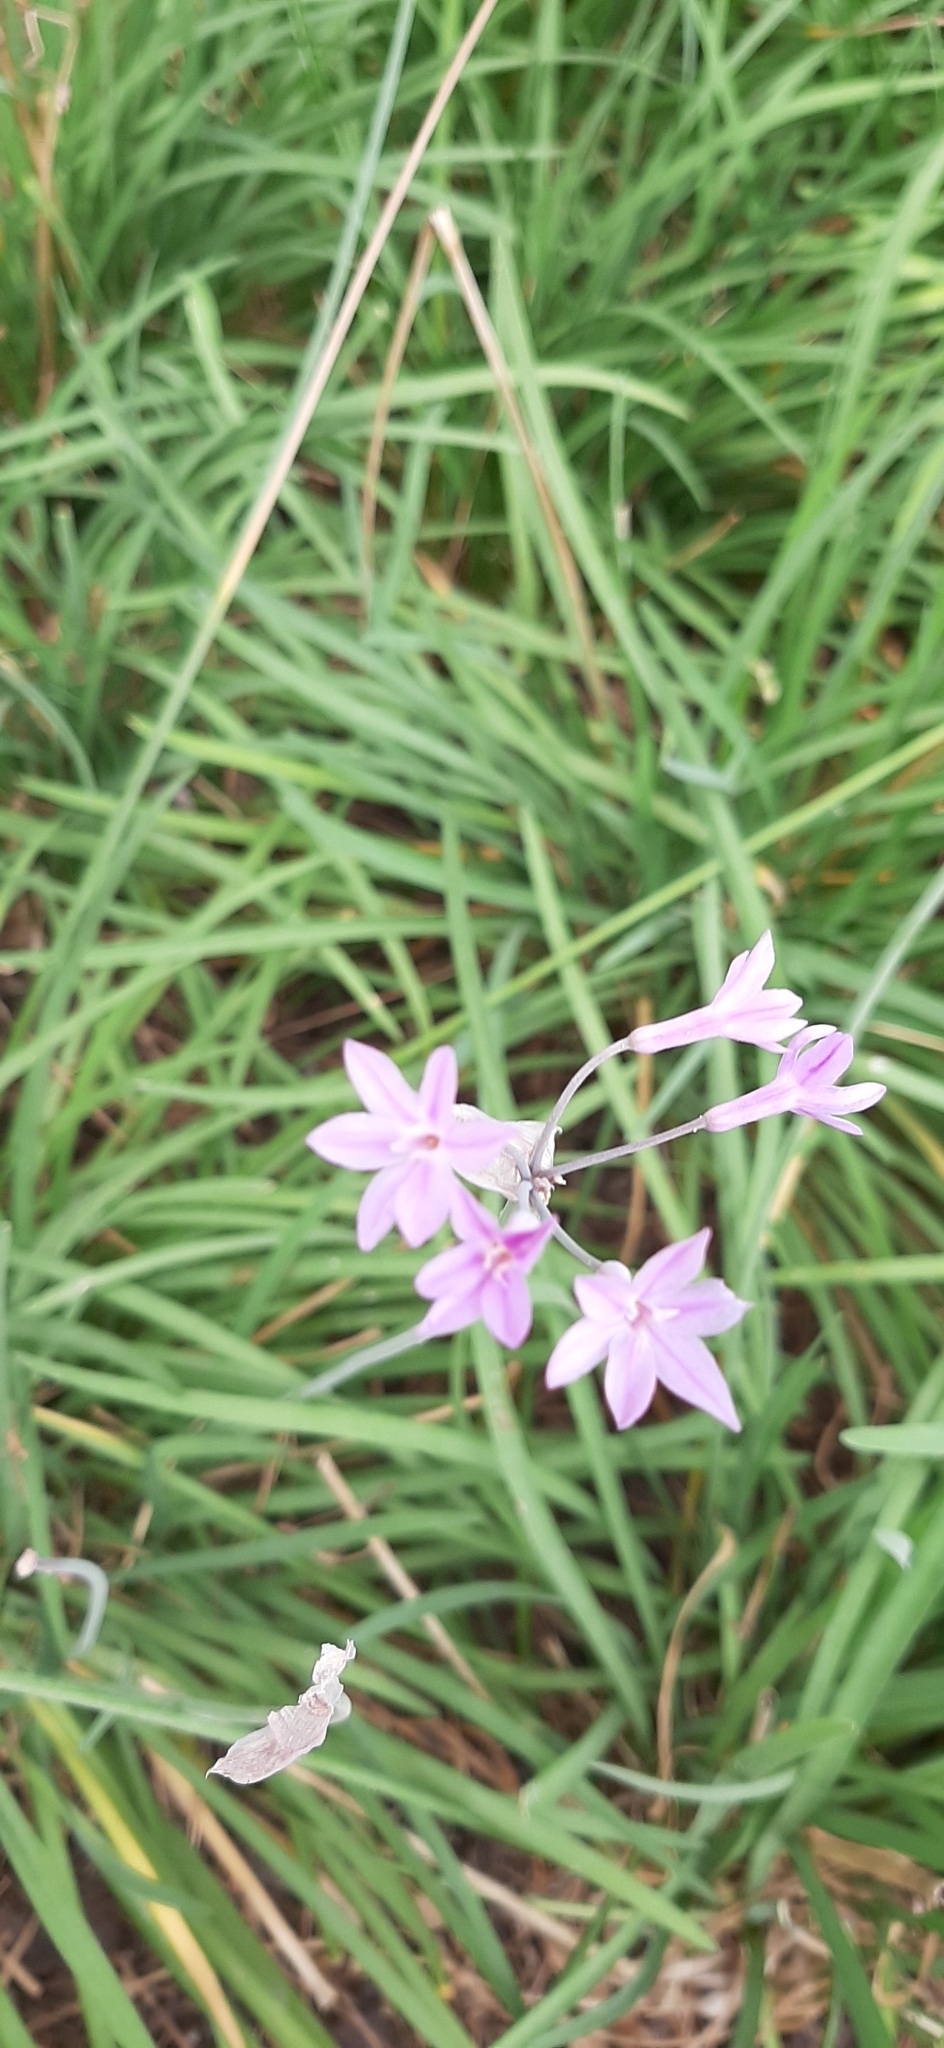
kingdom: Plantae
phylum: Tracheophyta
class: Liliopsida
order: Asparagales
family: Amaryllidaceae
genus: Tulbaghia
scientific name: Tulbaghia violacea
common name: Society garlic
